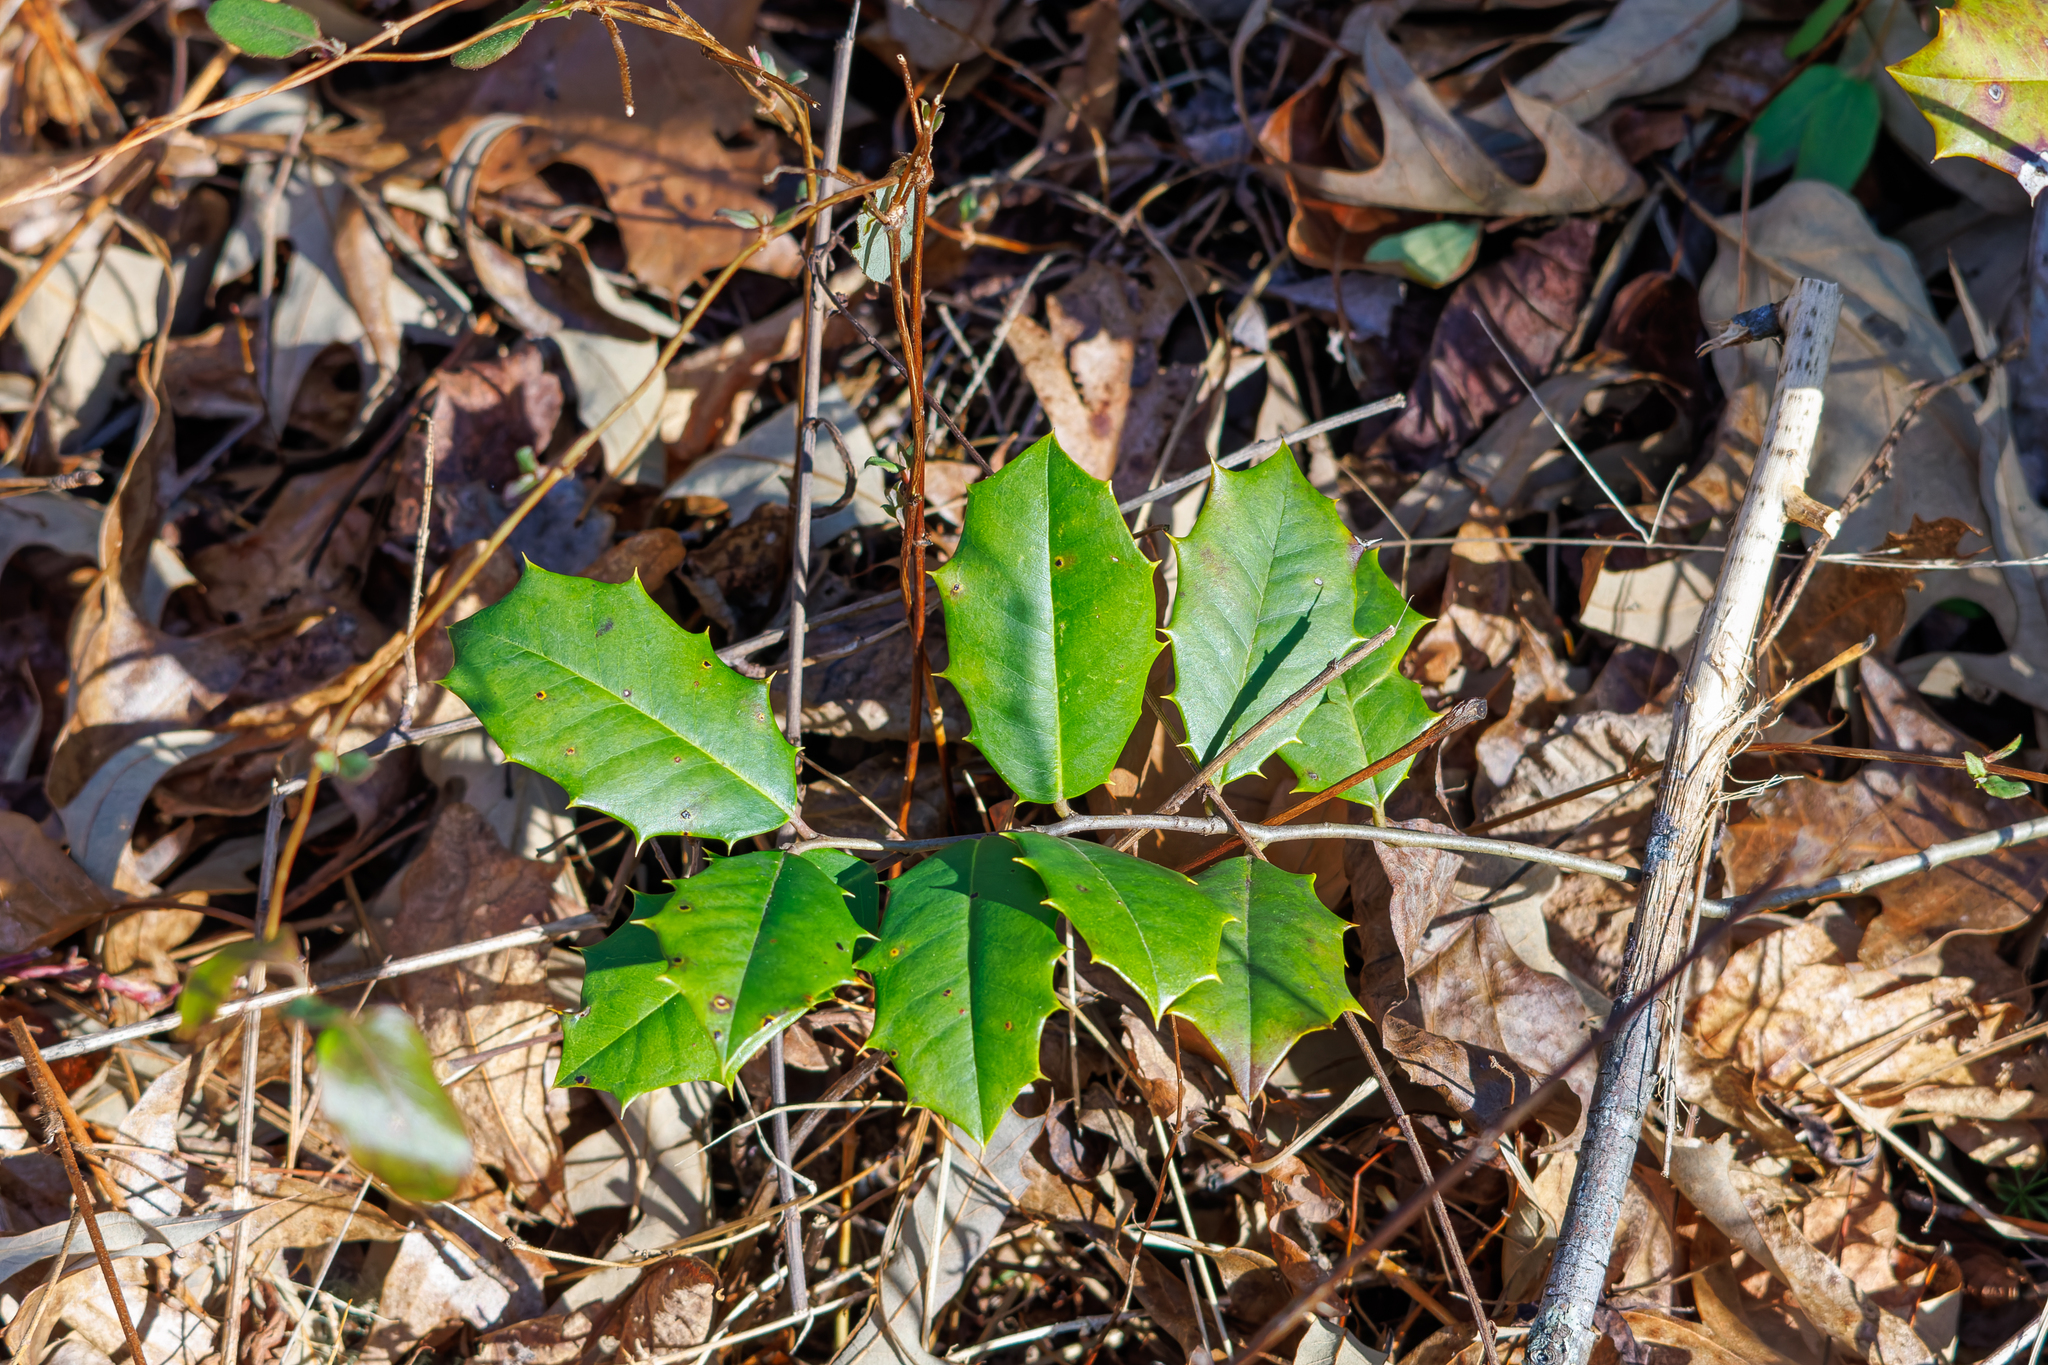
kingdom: Plantae
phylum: Tracheophyta
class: Magnoliopsida
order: Aquifoliales
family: Aquifoliaceae
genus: Ilex
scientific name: Ilex opaca
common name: American holly
